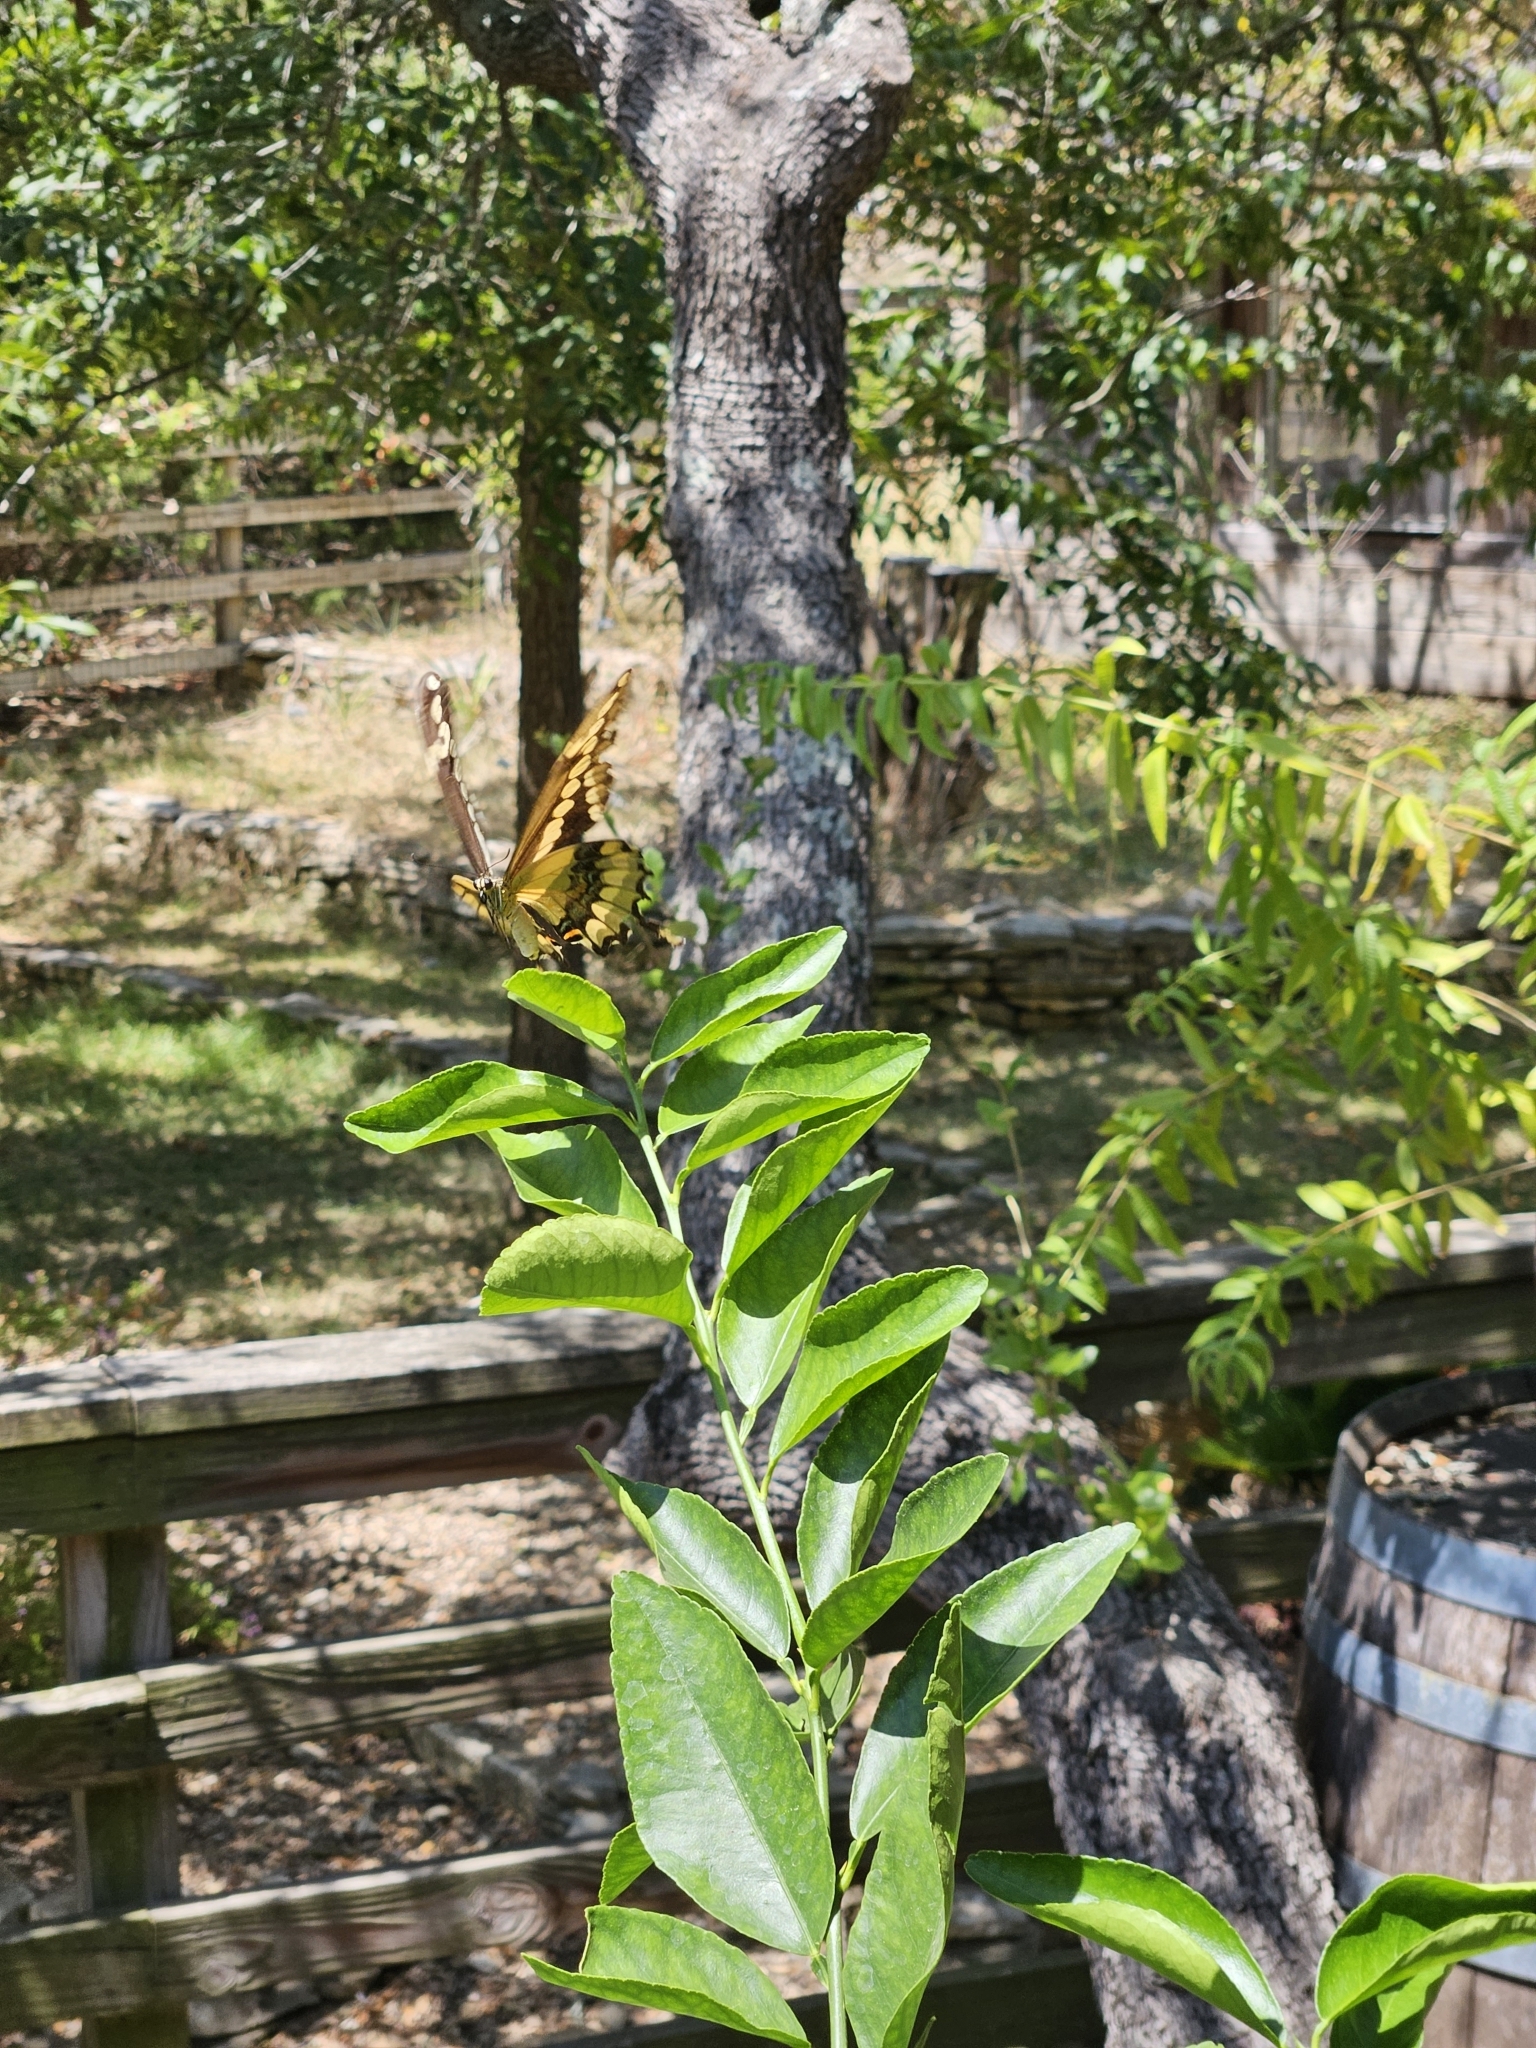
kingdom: Animalia
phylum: Arthropoda
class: Insecta
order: Lepidoptera
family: Papilionidae
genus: Papilio
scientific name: Papilio rumiko
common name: Western giant swallowtail
